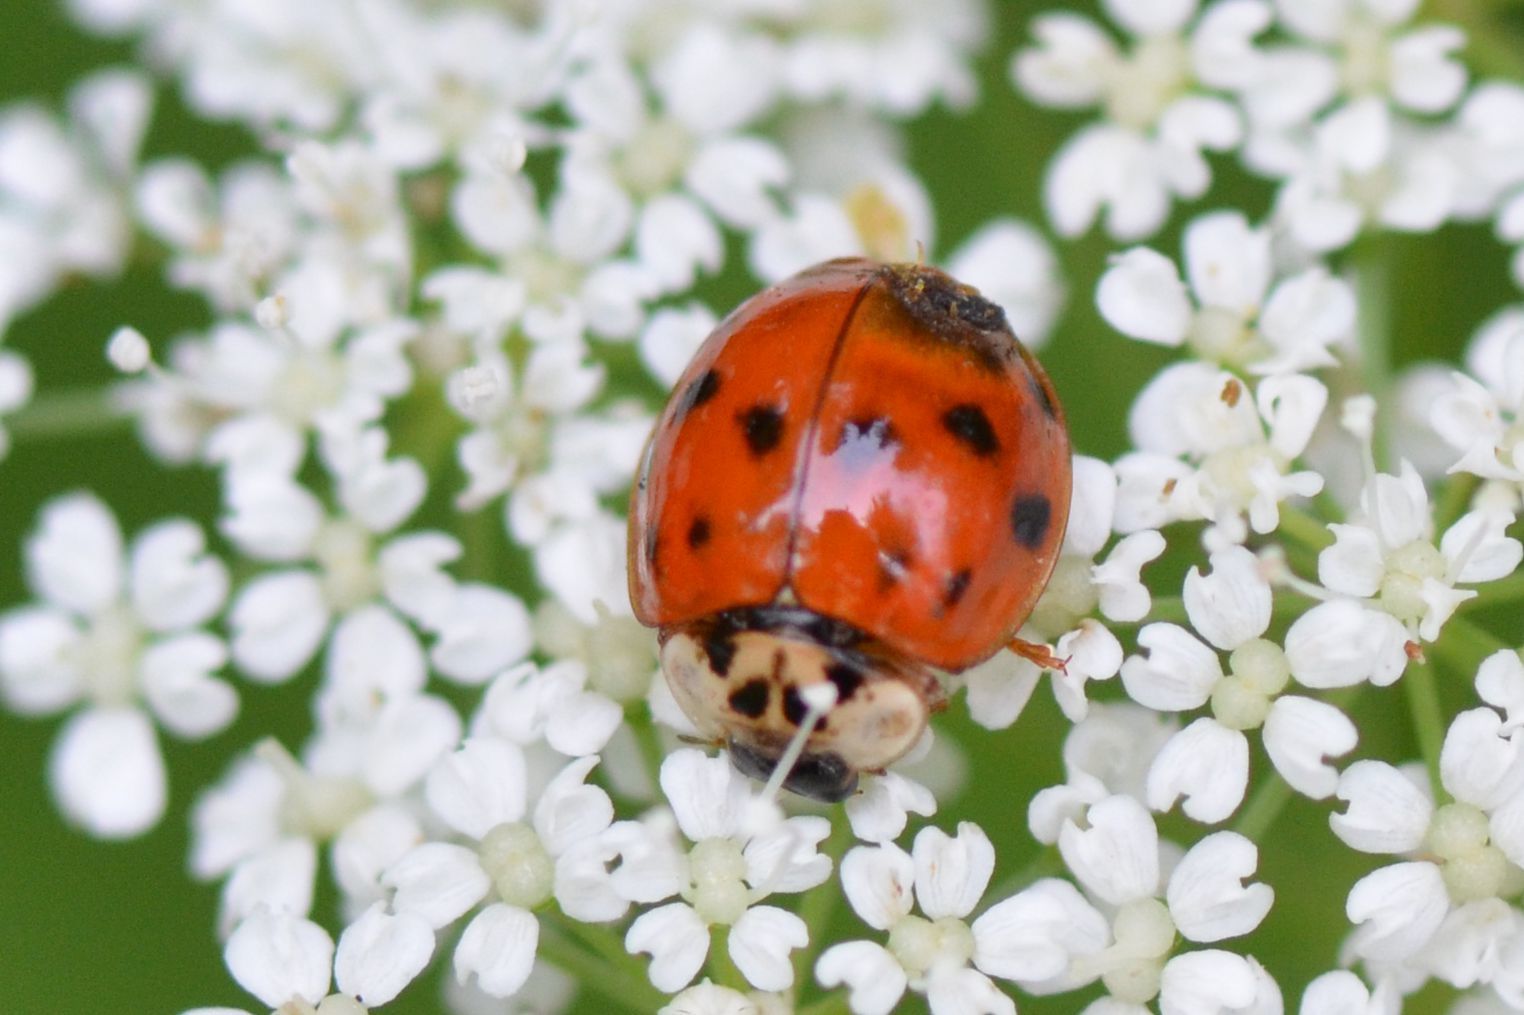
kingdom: Animalia
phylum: Arthropoda
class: Insecta
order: Coleoptera
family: Coccinellidae
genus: Harmonia
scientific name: Harmonia axyridis
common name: Harlequin ladybird
